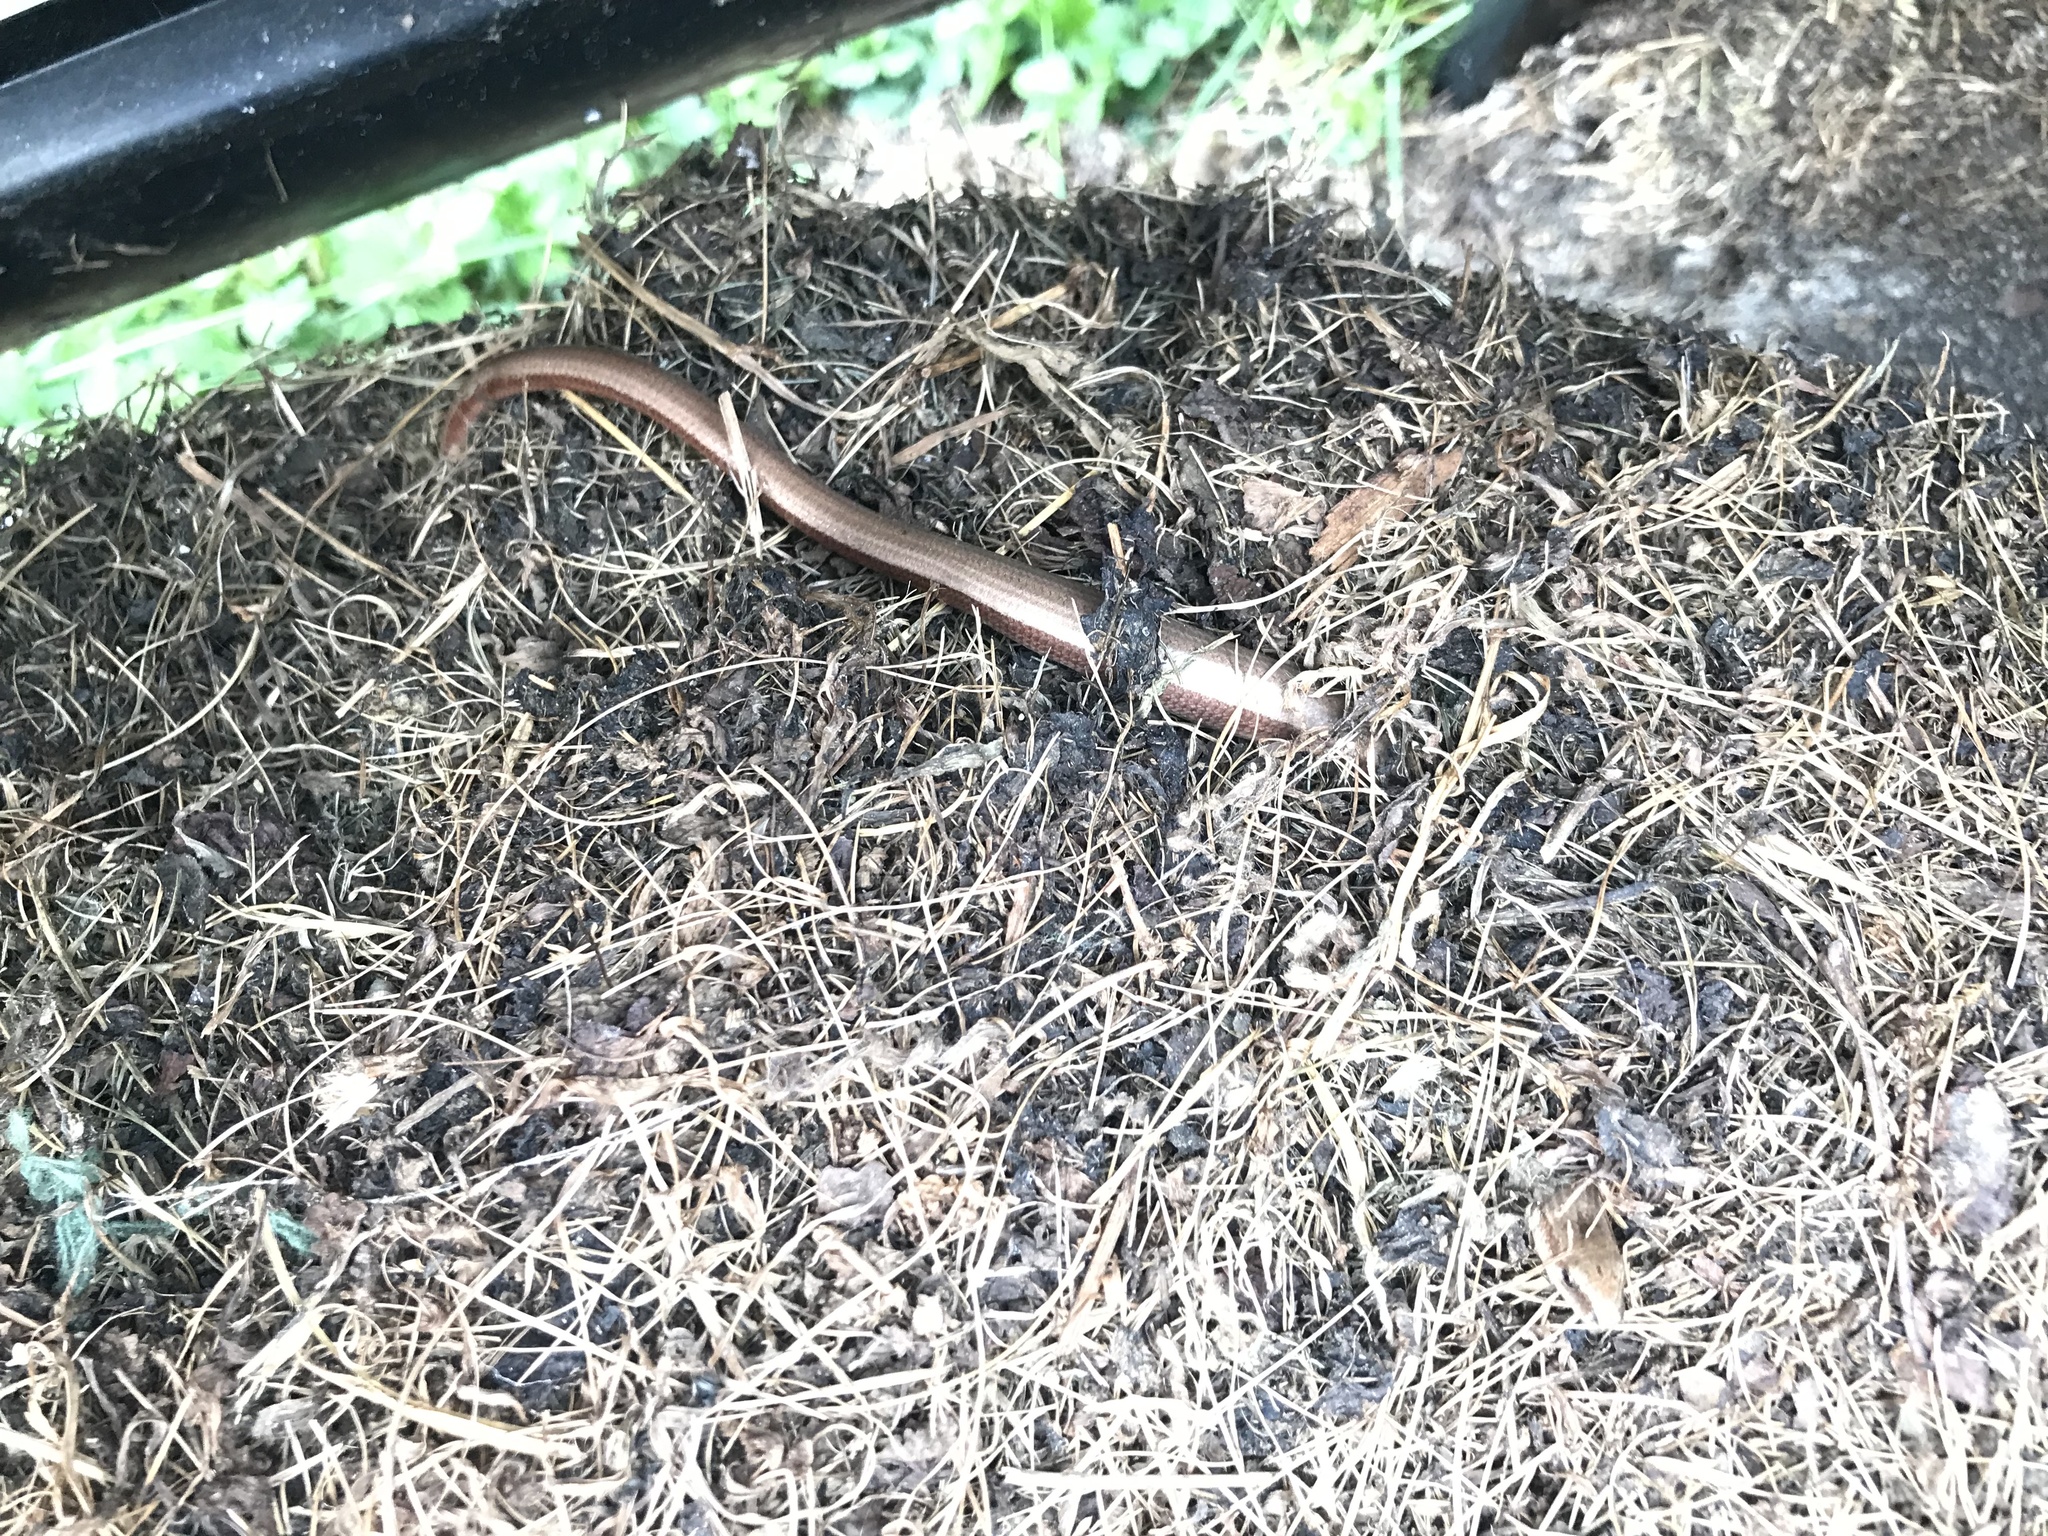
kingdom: Animalia
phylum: Chordata
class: Squamata
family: Anguidae
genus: Anguis
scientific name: Anguis fragilis
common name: Slow worm
